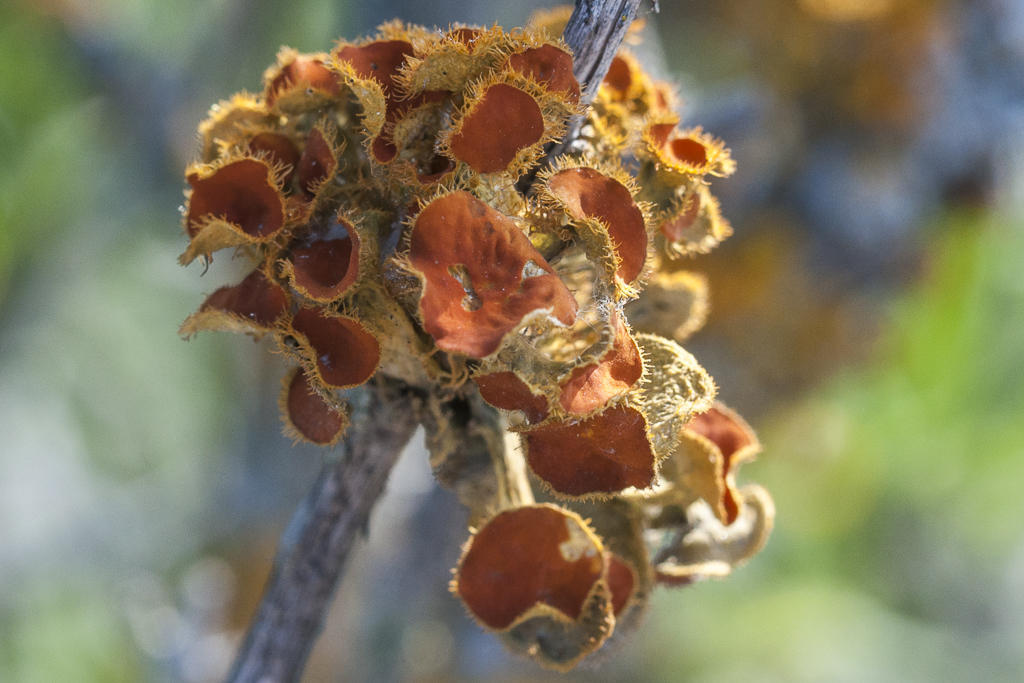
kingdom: Fungi
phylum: Ascomycota
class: Lecanoromycetes
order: Teloschistales
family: Teloschistaceae
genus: Niorma
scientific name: Niorma chrysophthalma
